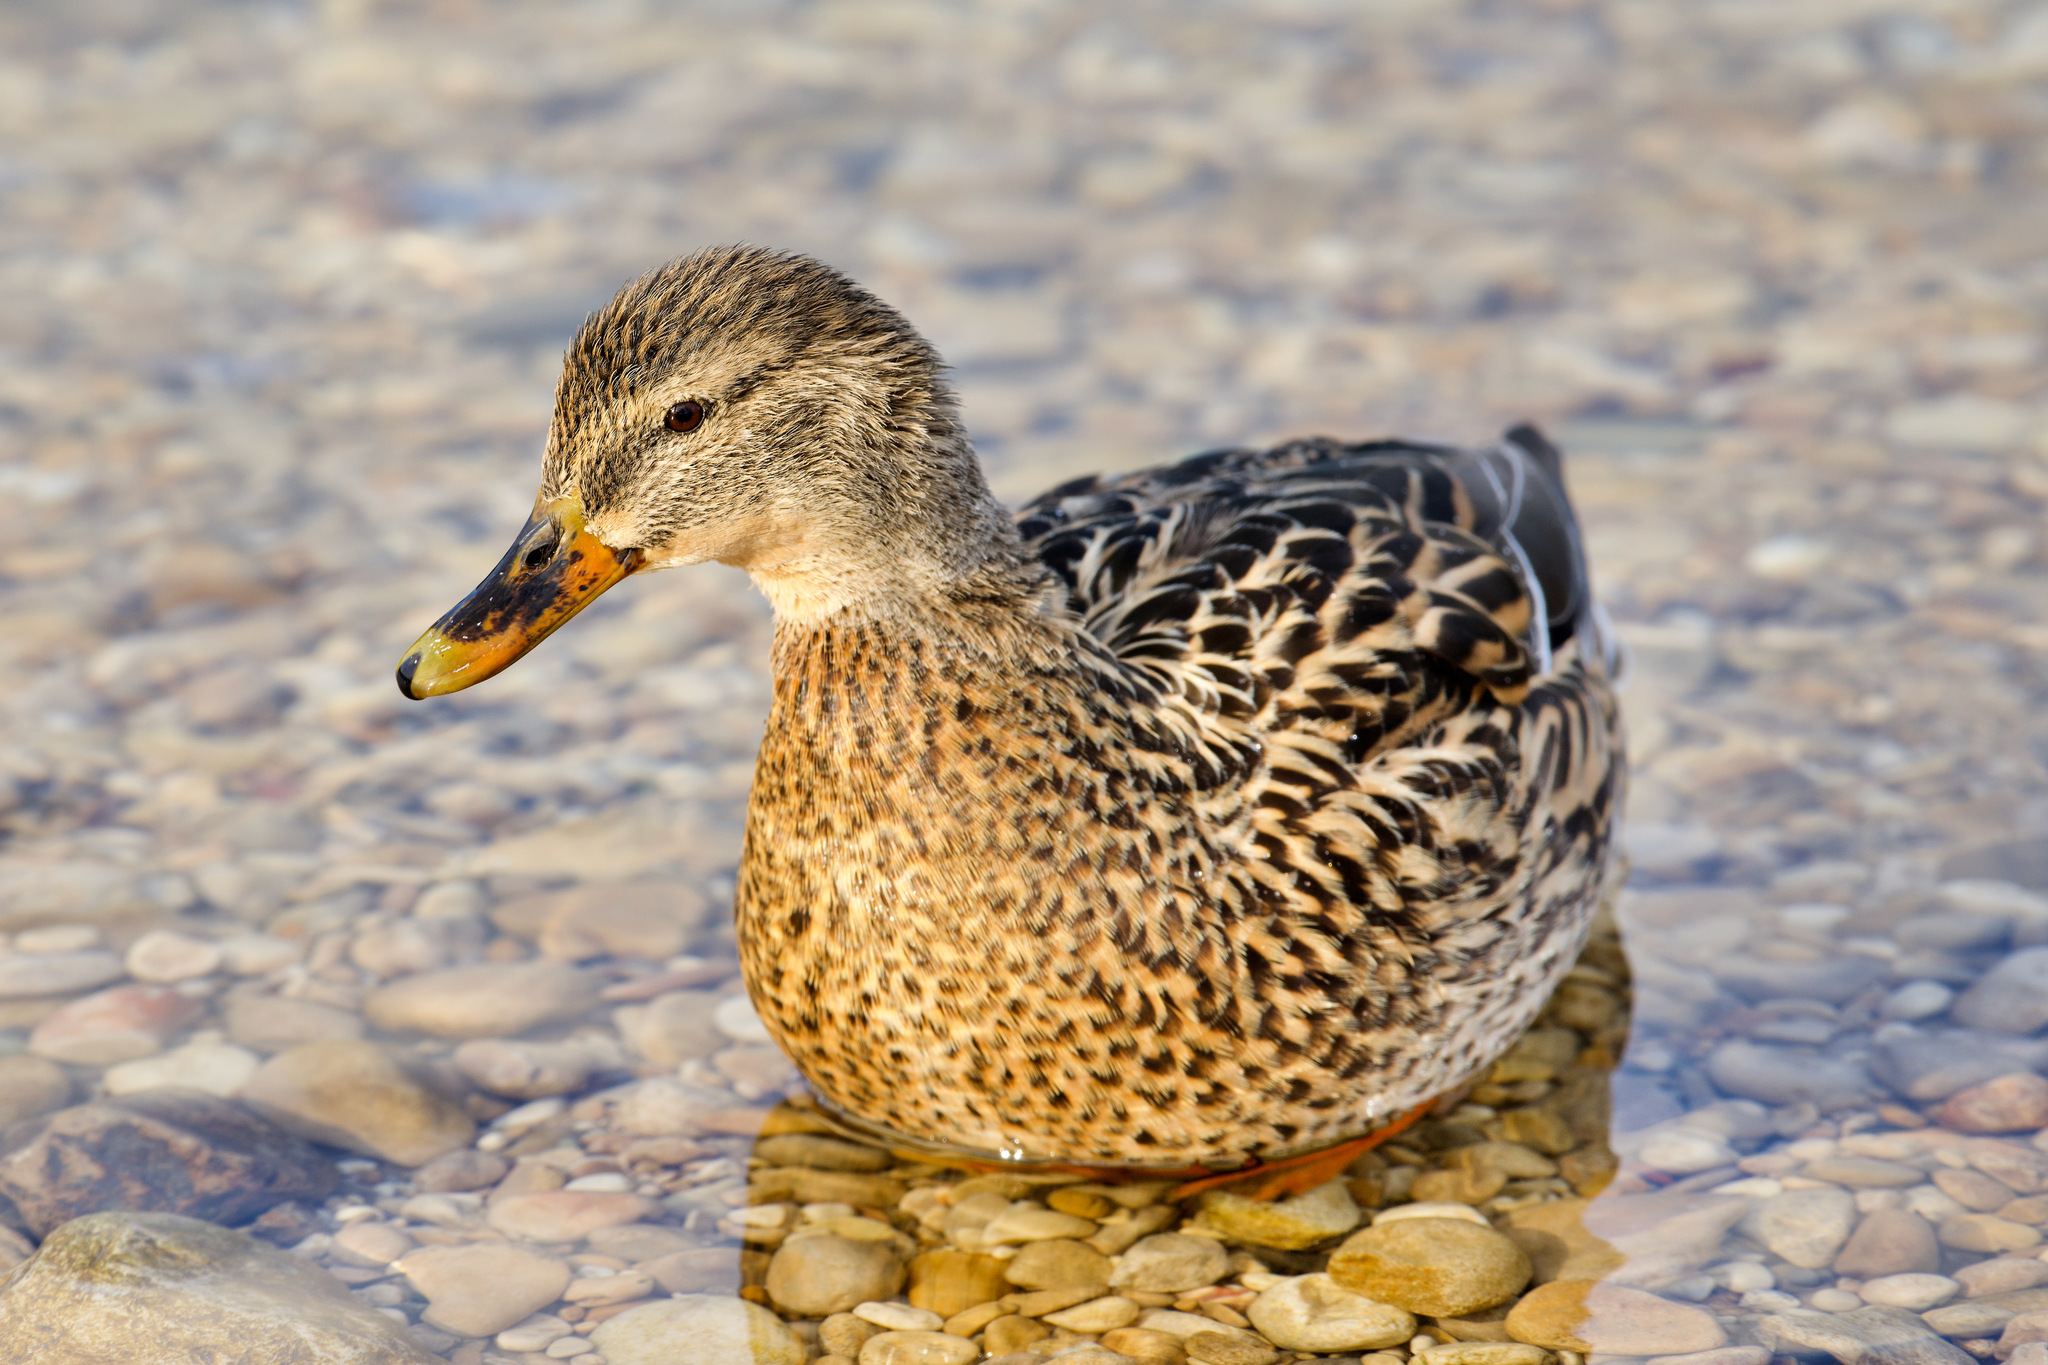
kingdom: Animalia
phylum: Chordata
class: Aves
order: Anseriformes
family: Anatidae
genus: Anas
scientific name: Anas platyrhynchos
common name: Mallard
